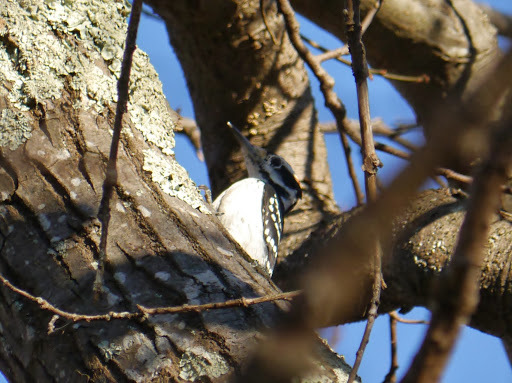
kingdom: Animalia
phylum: Chordata
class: Aves
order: Piciformes
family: Picidae
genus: Leuconotopicus
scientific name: Leuconotopicus villosus
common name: Hairy woodpecker
